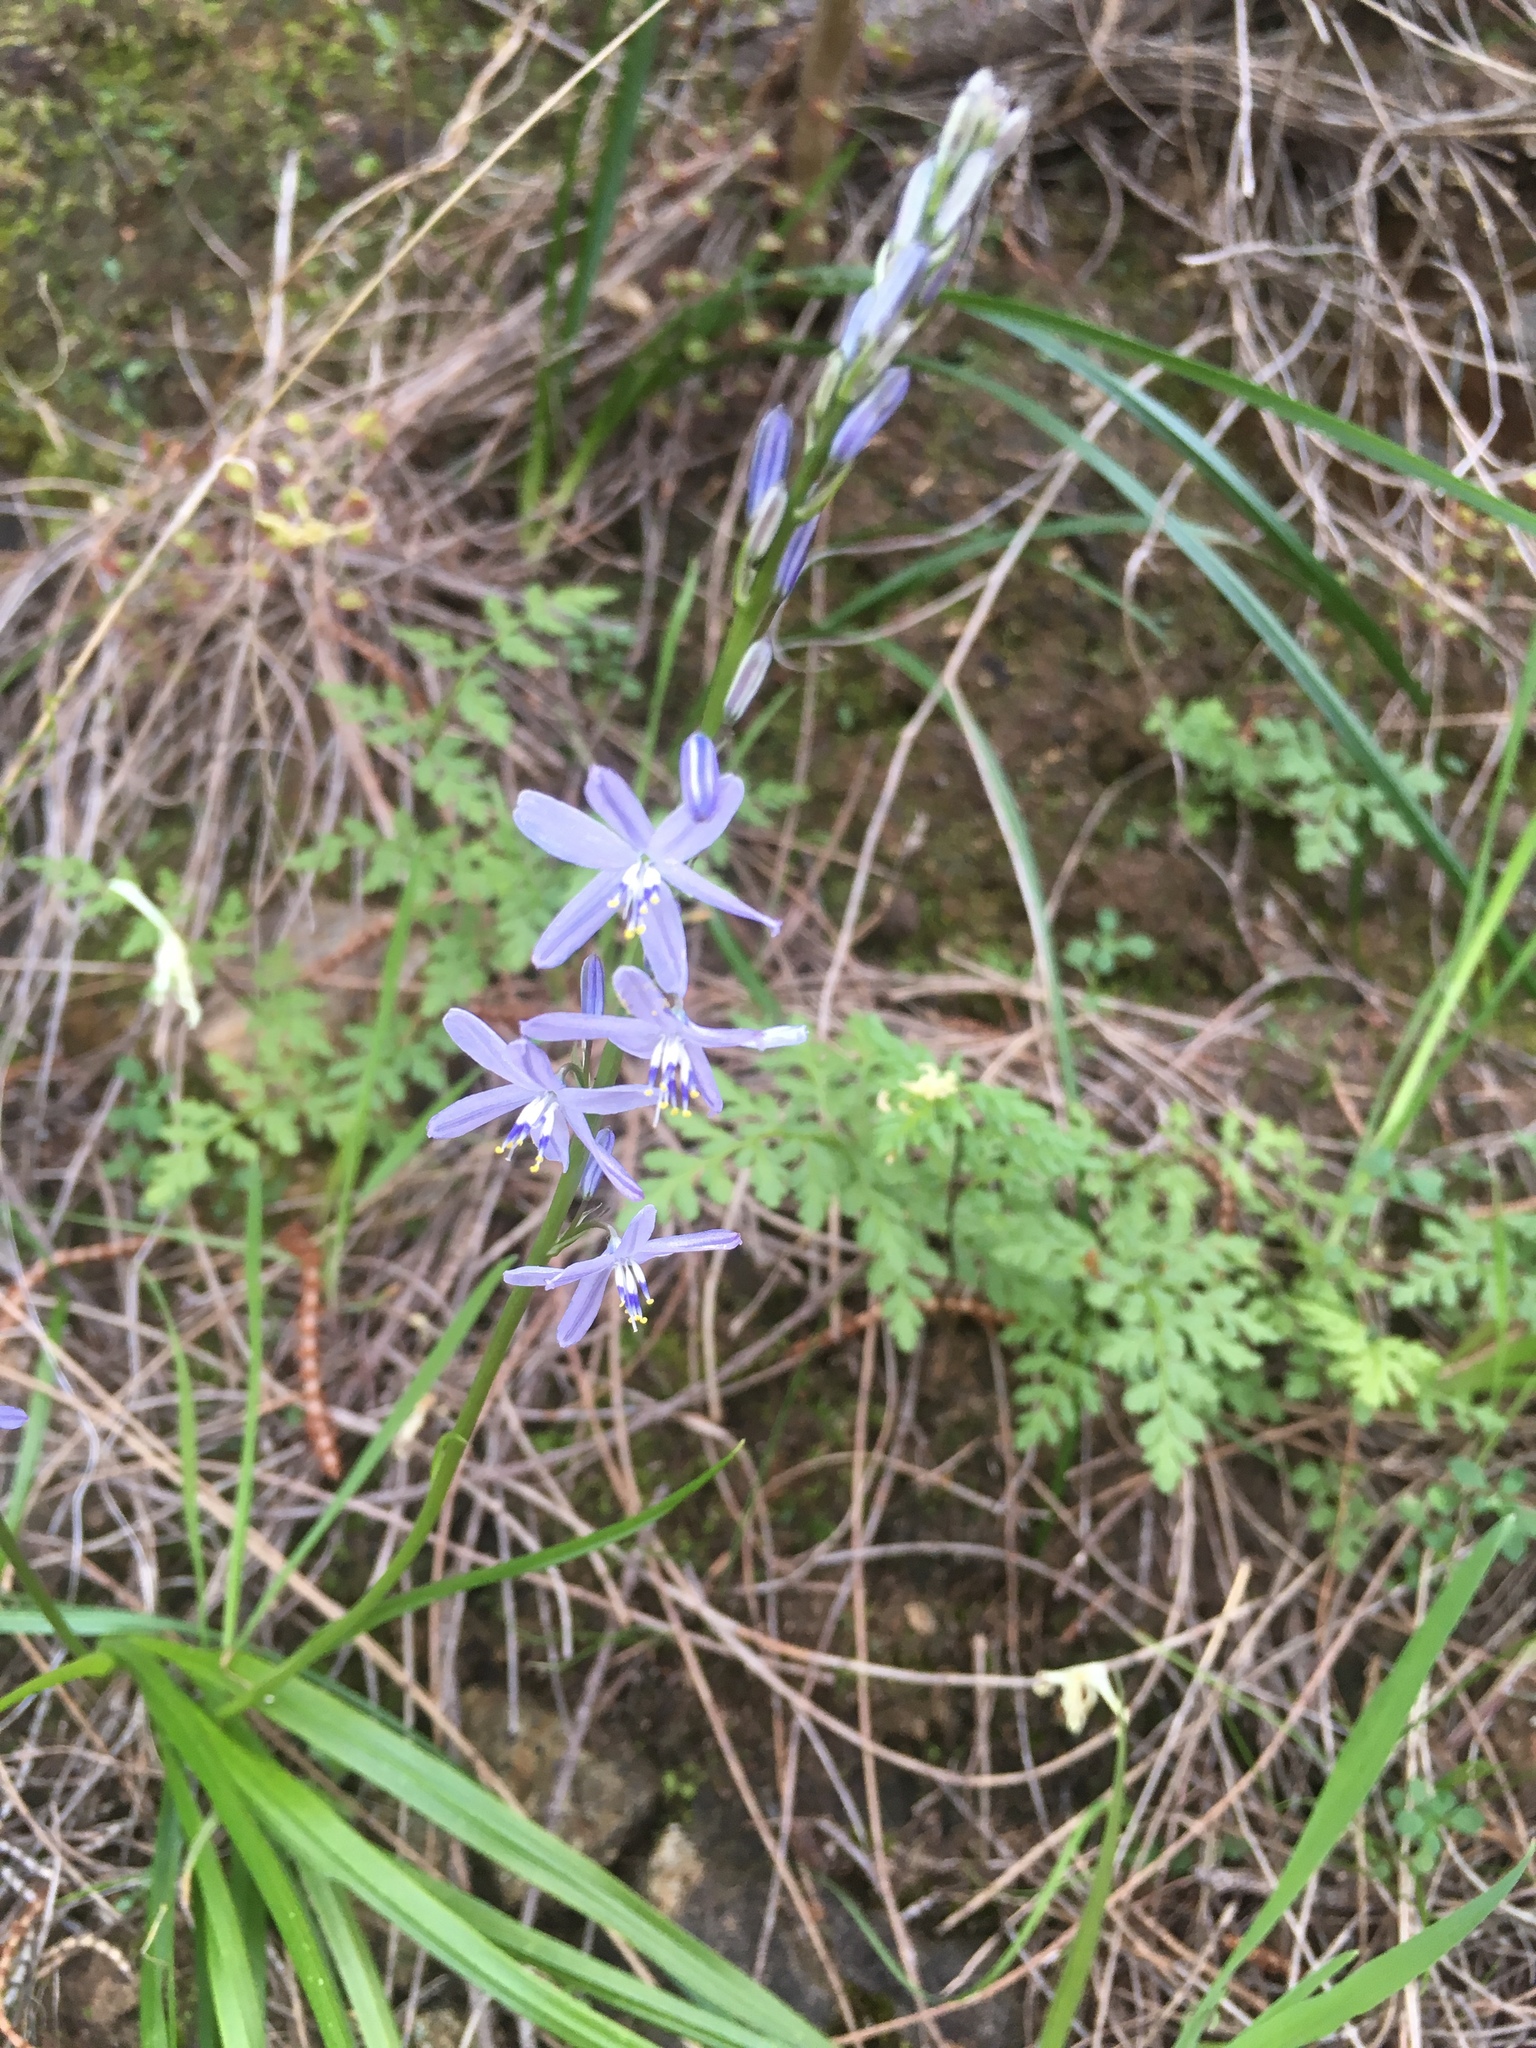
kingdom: Plantae
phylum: Tracheophyta
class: Liliopsida
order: Asparagales
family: Asphodelaceae
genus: Caesia
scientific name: Caesia calliantha
